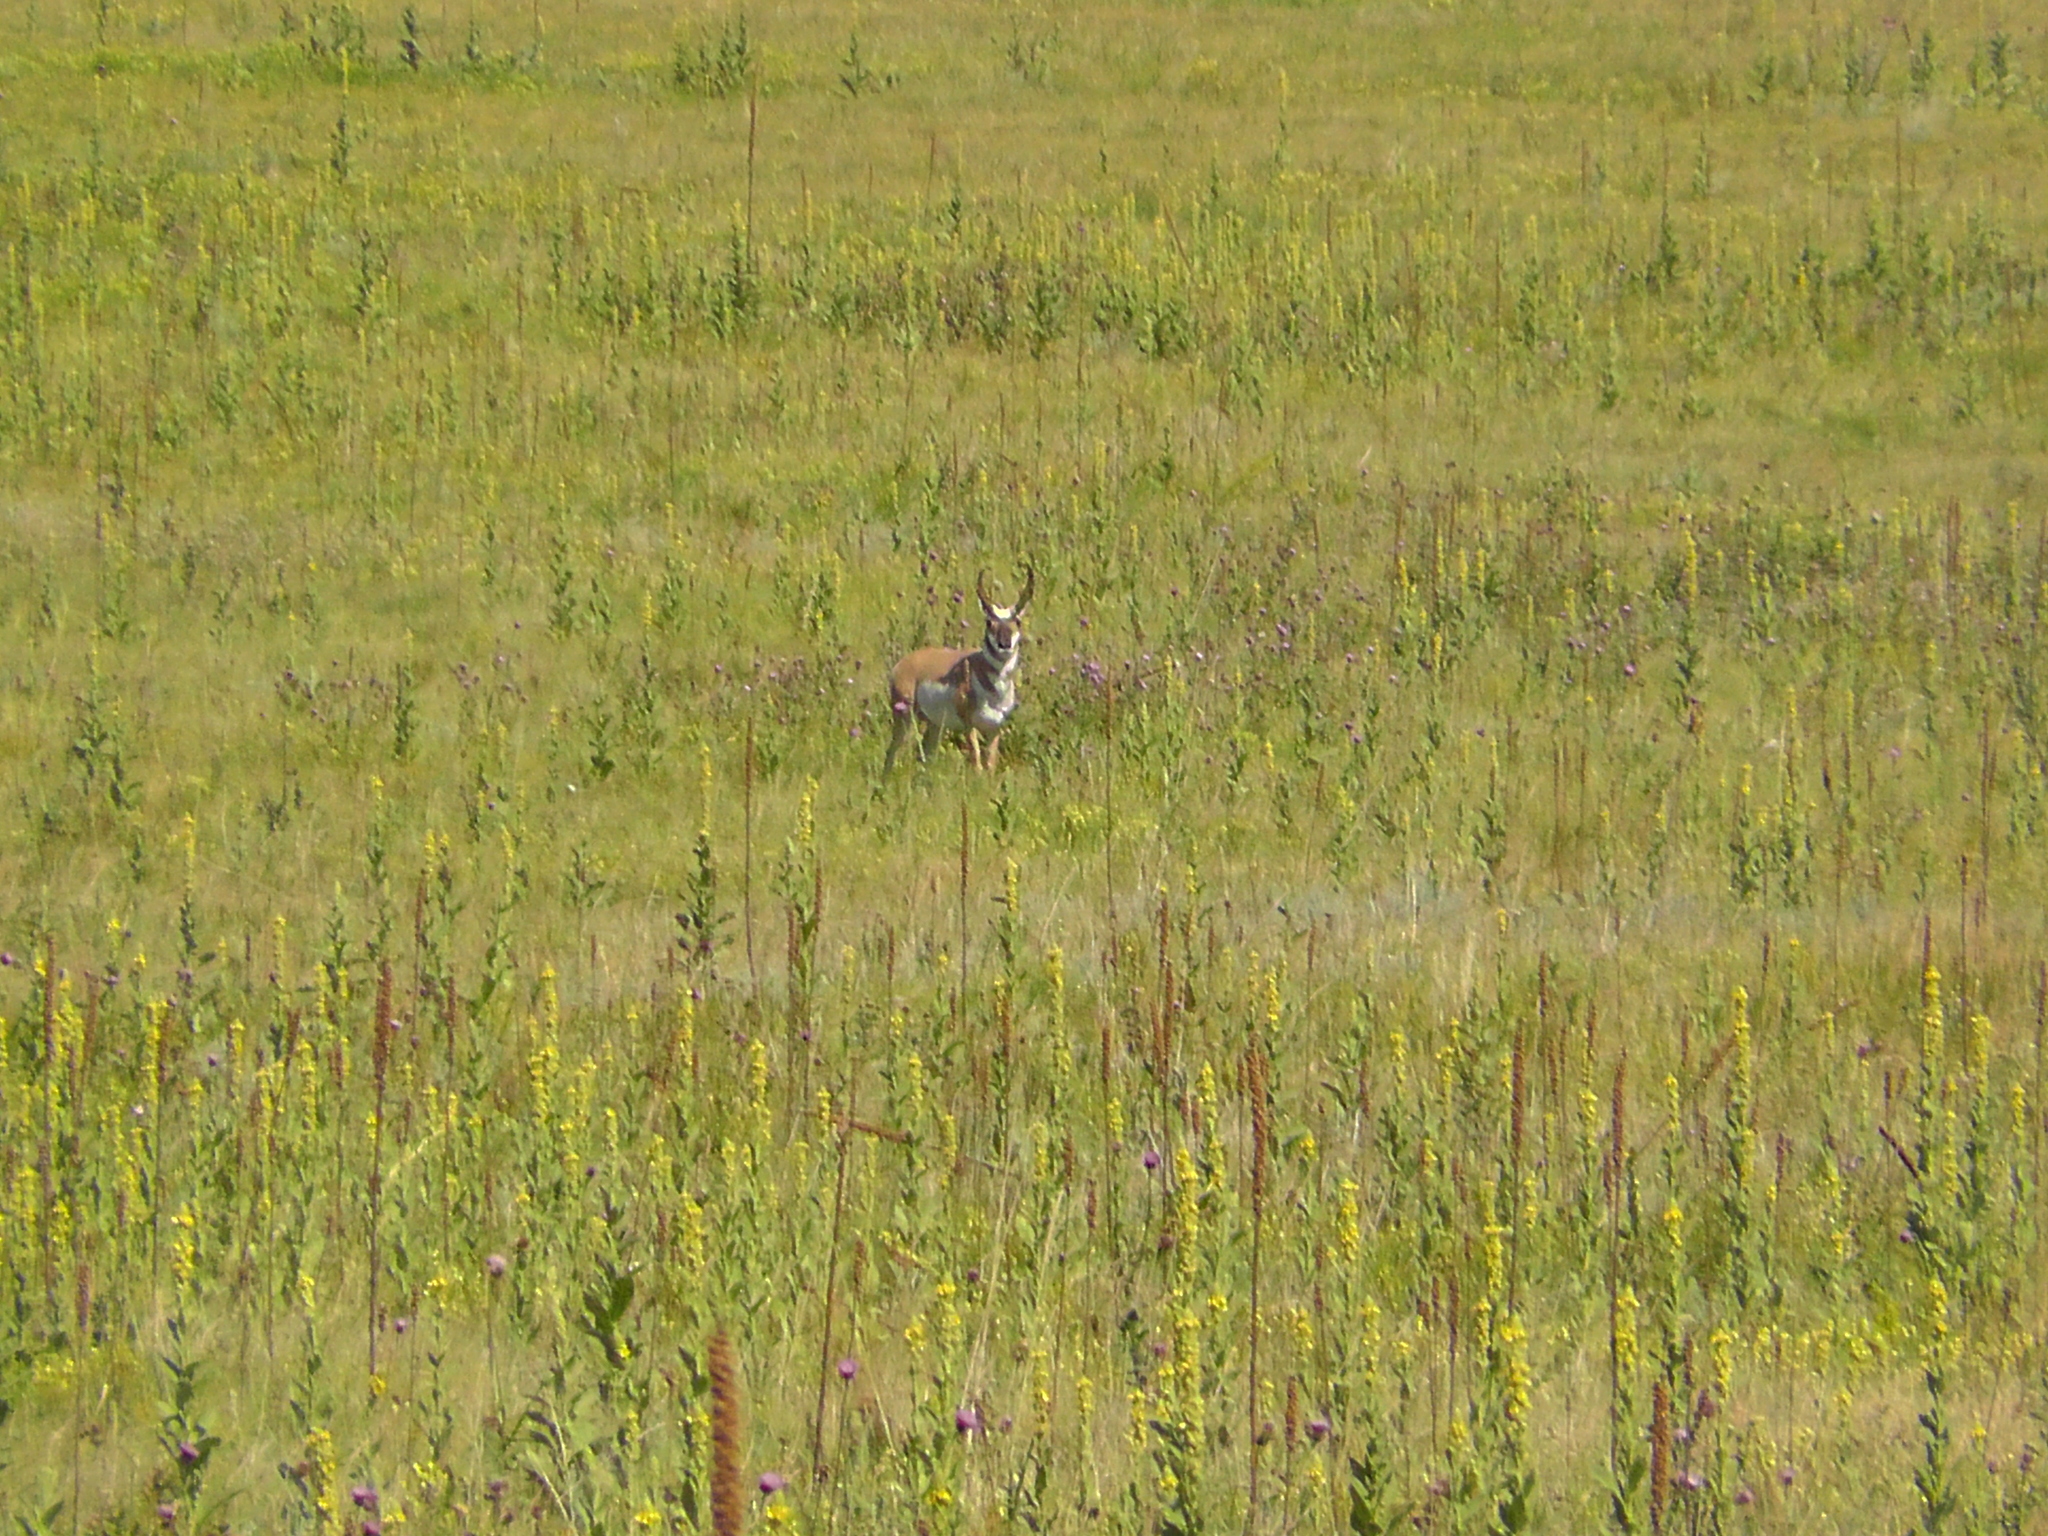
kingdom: Animalia
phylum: Chordata
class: Mammalia
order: Artiodactyla
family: Antilocapridae
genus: Antilocapra
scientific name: Antilocapra americana
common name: Pronghorn
